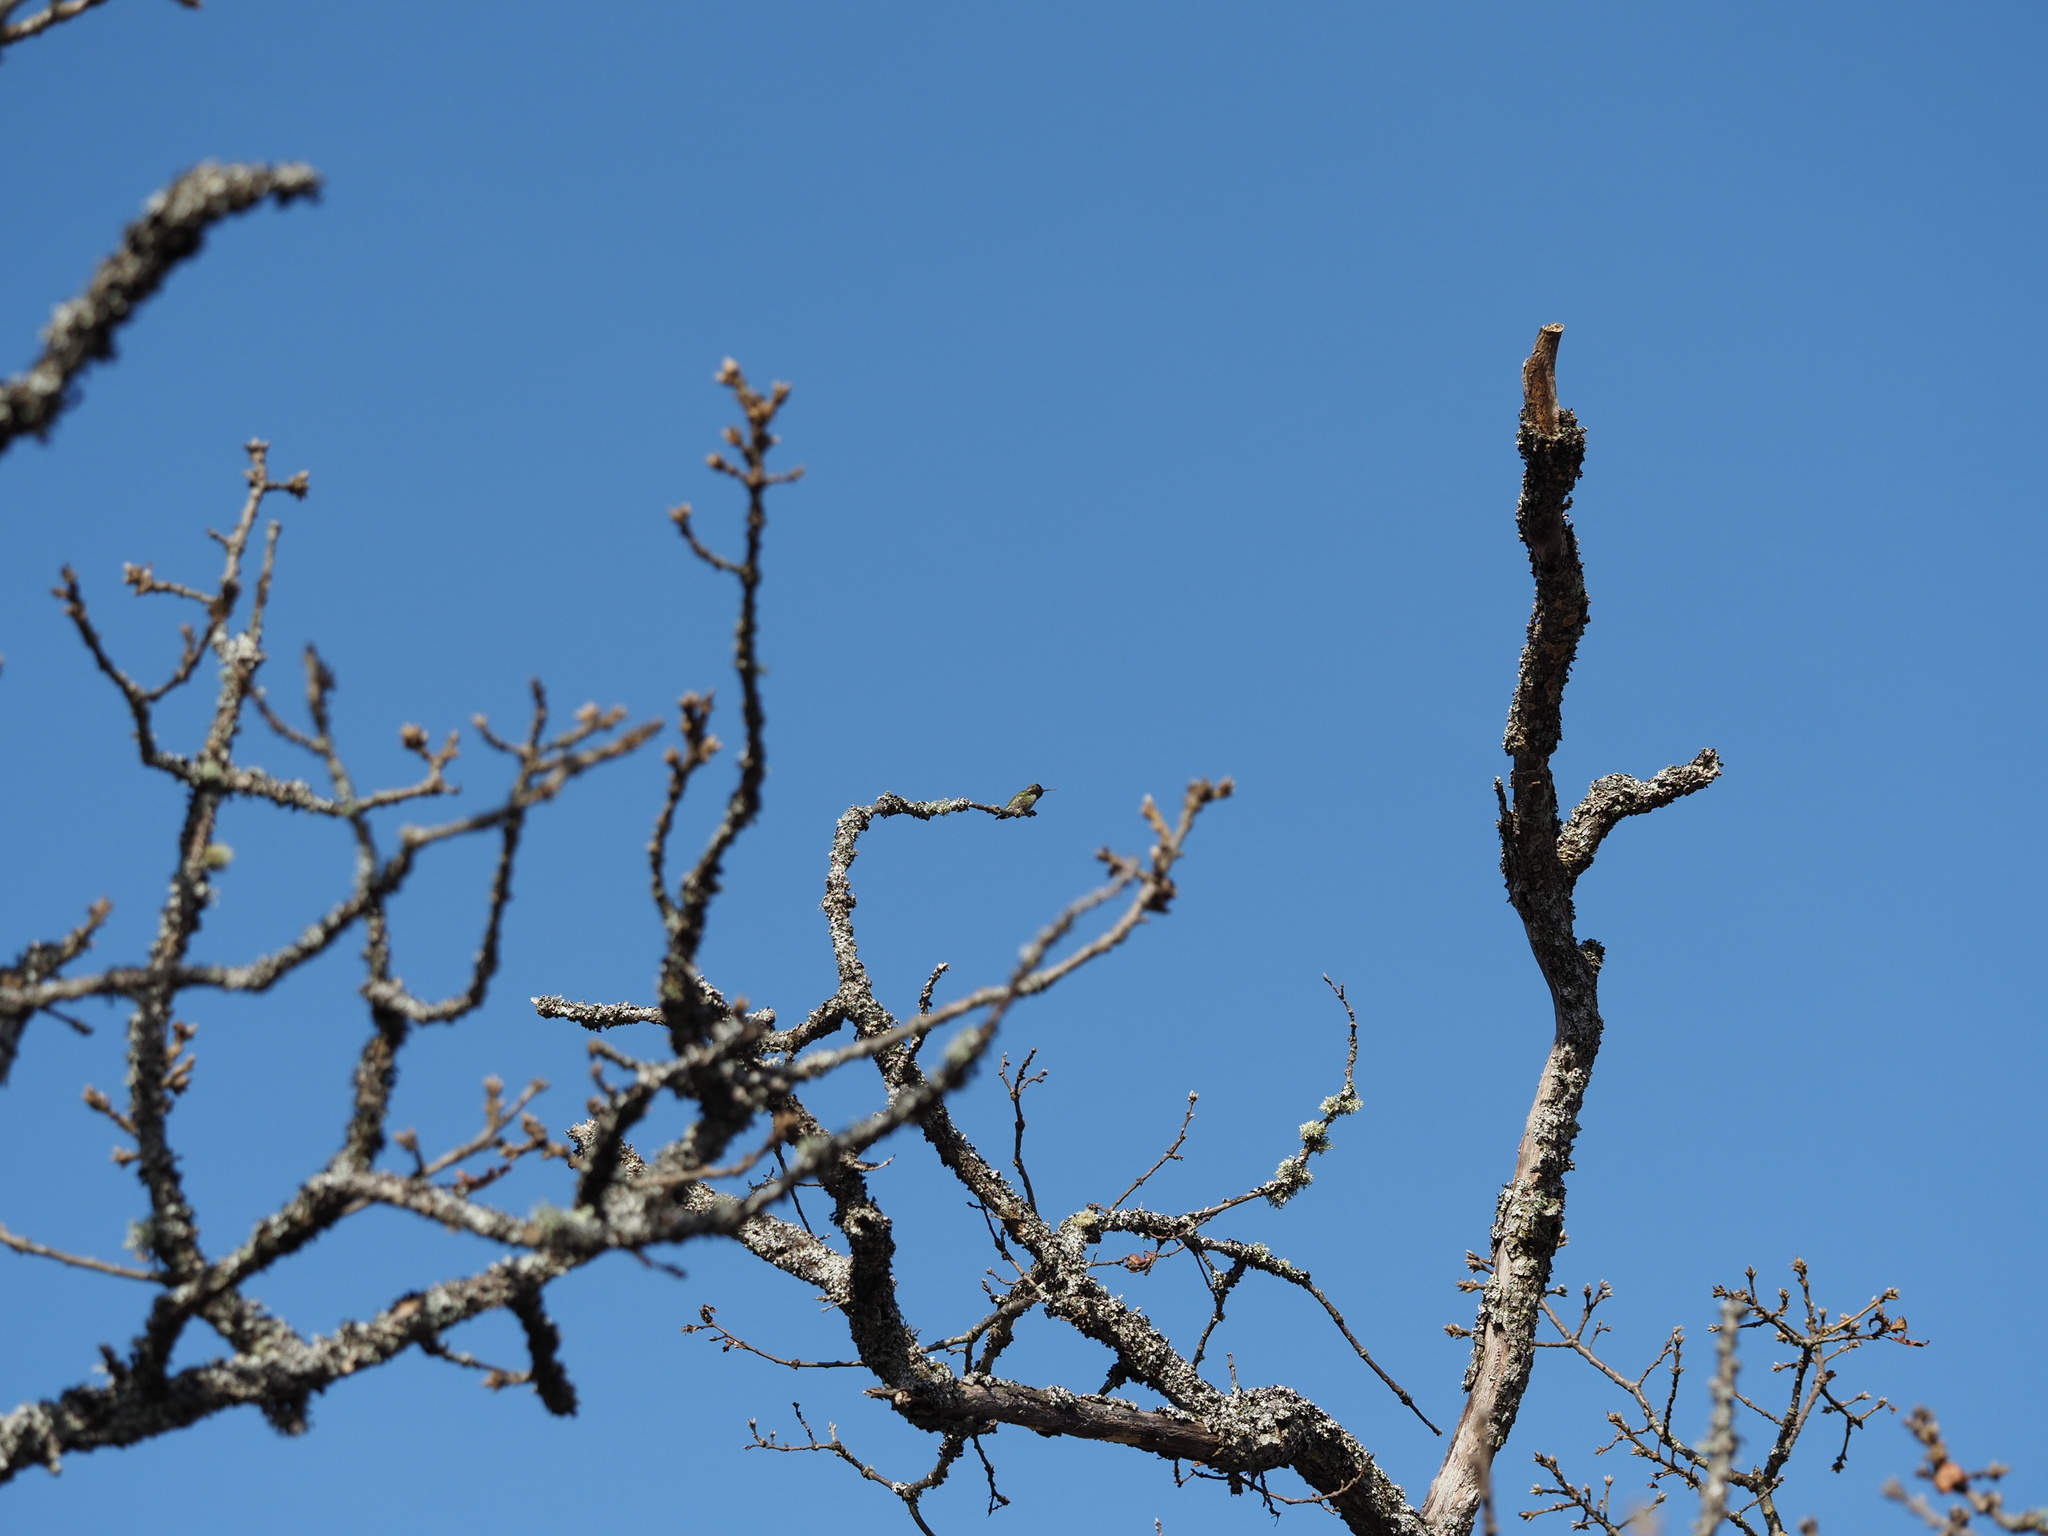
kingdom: Animalia
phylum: Chordata
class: Aves
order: Apodiformes
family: Trochilidae
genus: Calypte
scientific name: Calypte anna
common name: Anna's hummingbird
